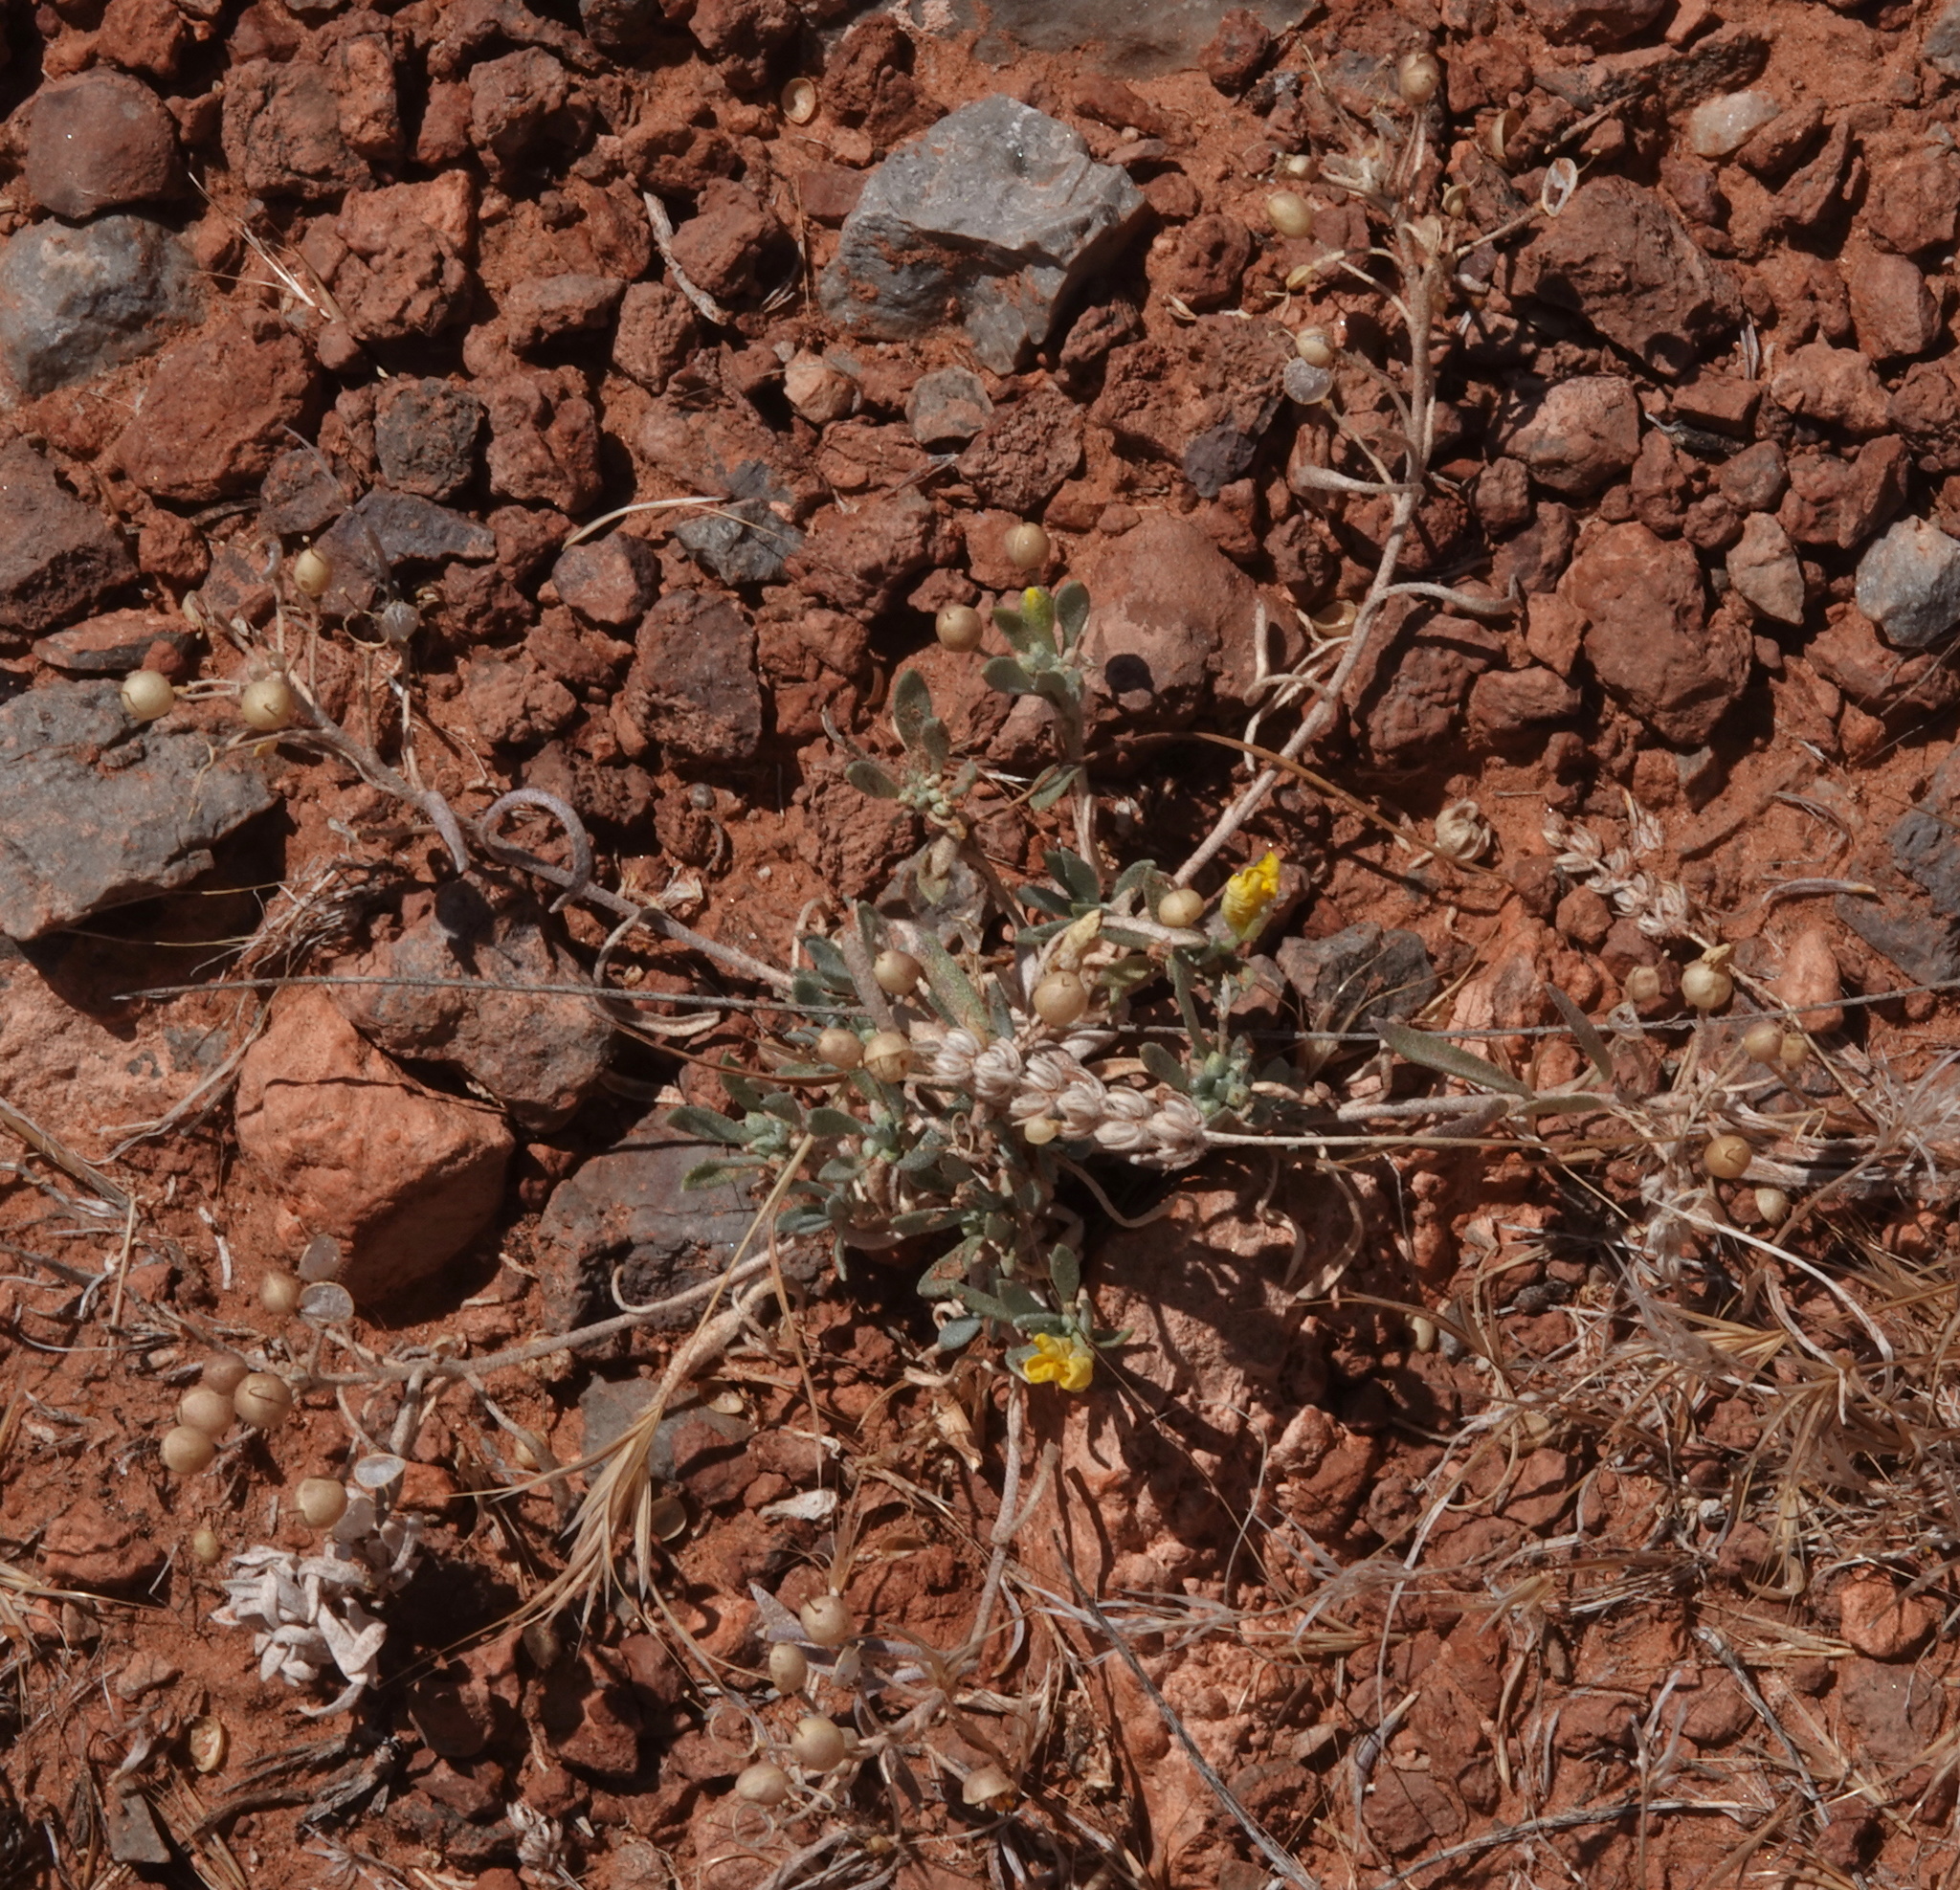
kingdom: Plantae
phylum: Tracheophyta
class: Magnoliopsida
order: Brassicales
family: Brassicaceae
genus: Physaria
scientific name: Physaria fendleri
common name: Fendler's bladderpod
